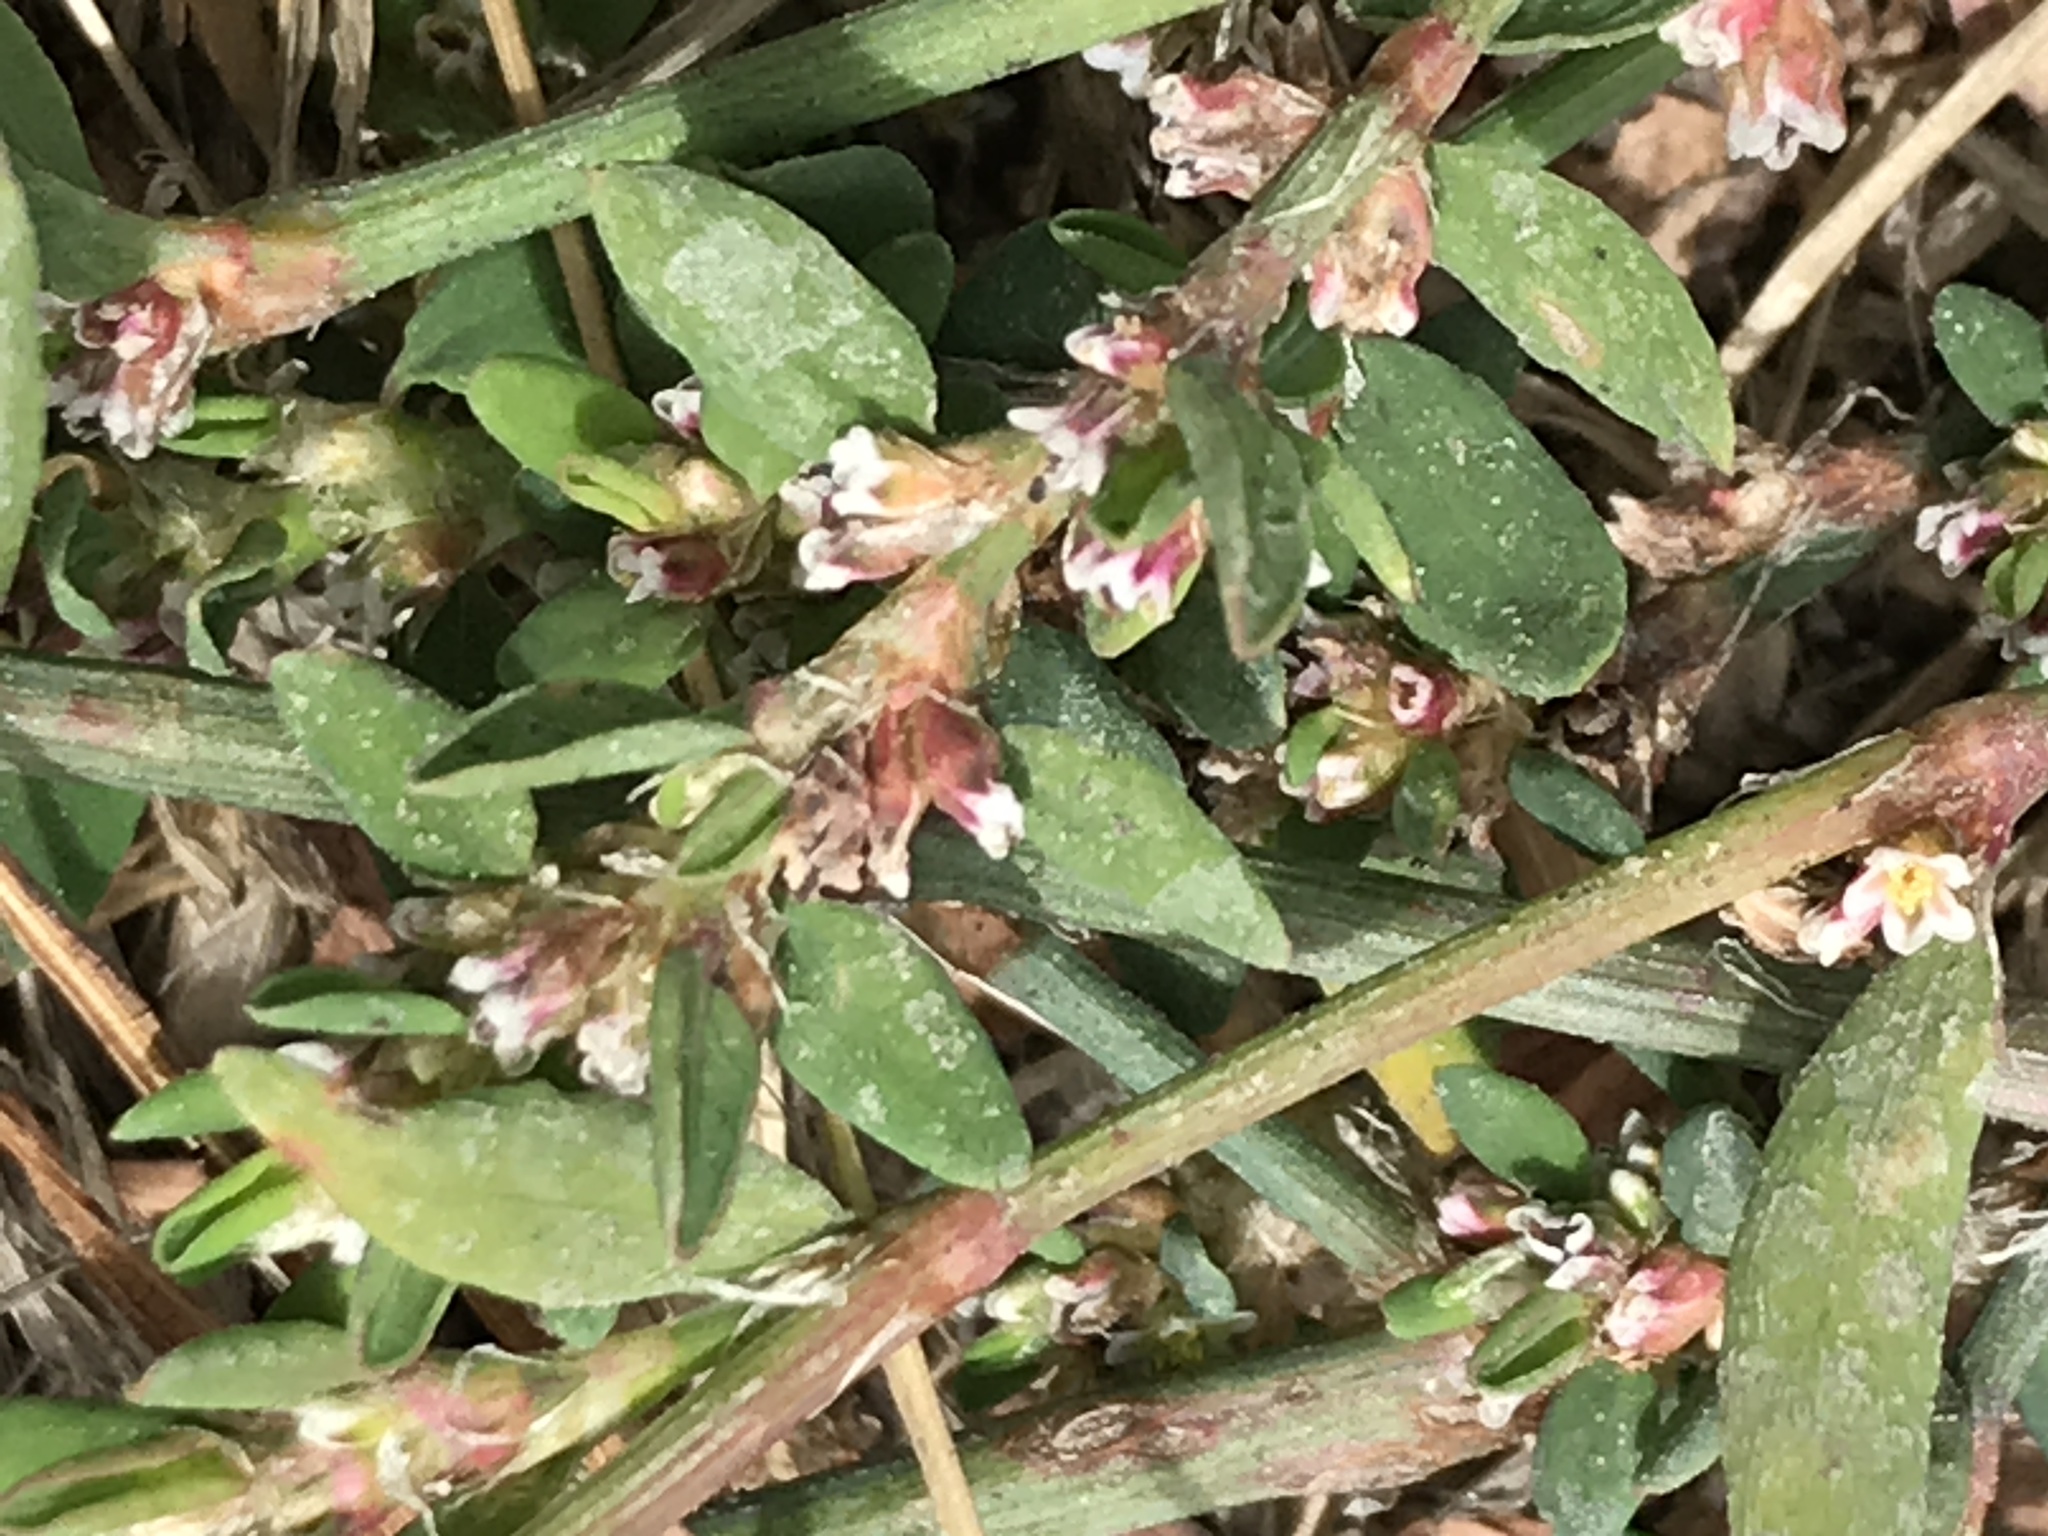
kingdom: Plantae
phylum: Tracheophyta
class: Magnoliopsida
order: Caryophyllales
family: Polygonaceae
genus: Polygonum
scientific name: Polygonum aviculare
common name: Prostrate knotweed
